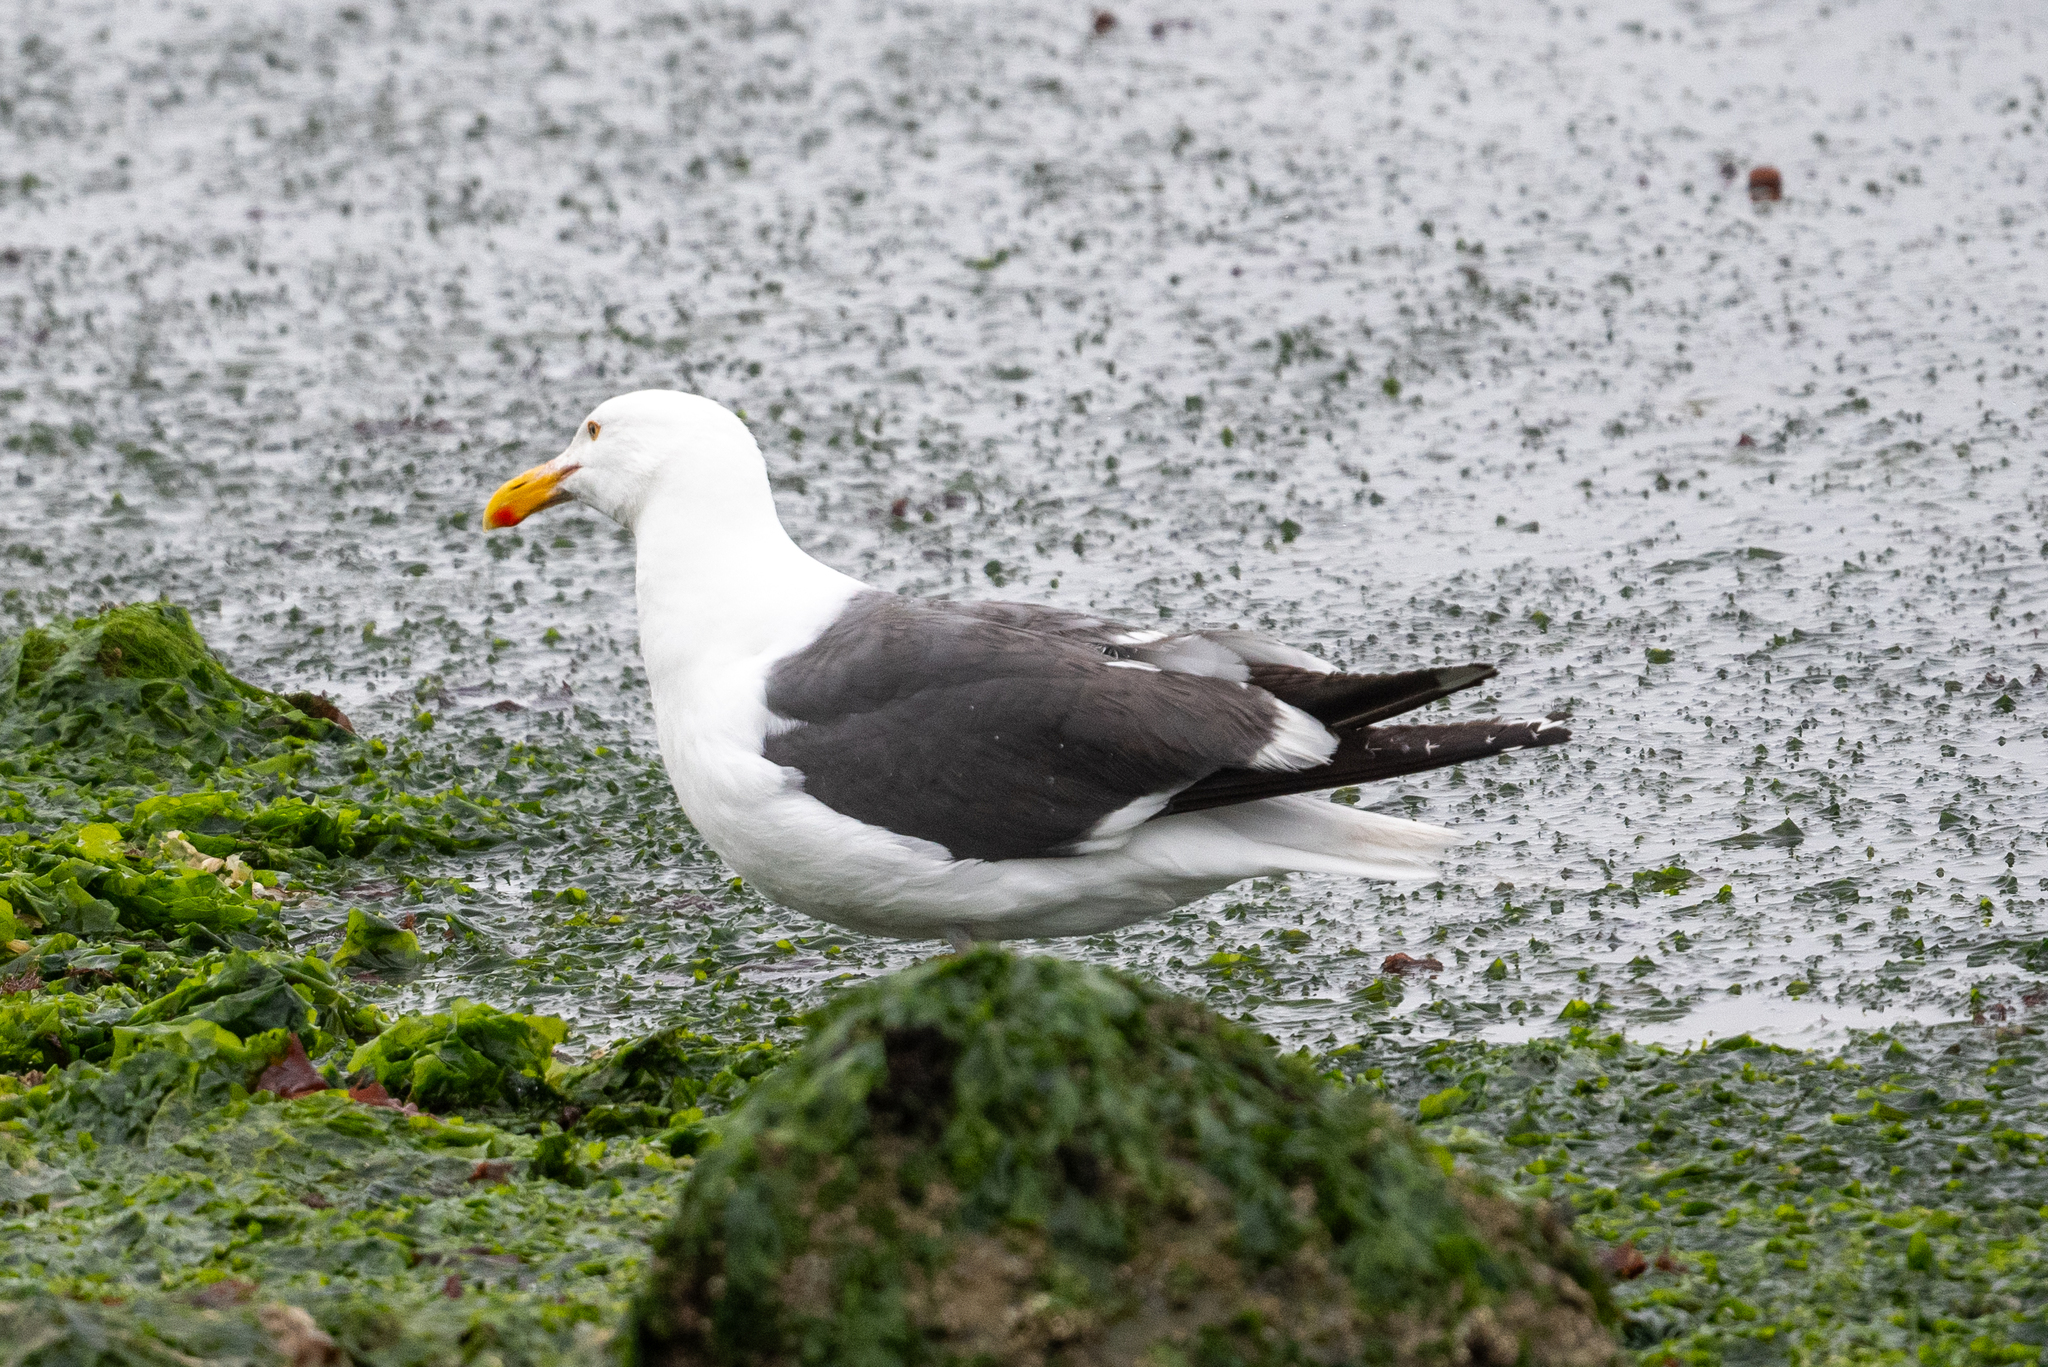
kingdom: Animalia
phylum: Chordata
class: Aves
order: Charadriiformes
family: Laridae
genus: Larus
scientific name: Larus occidentalis
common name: Western gull
